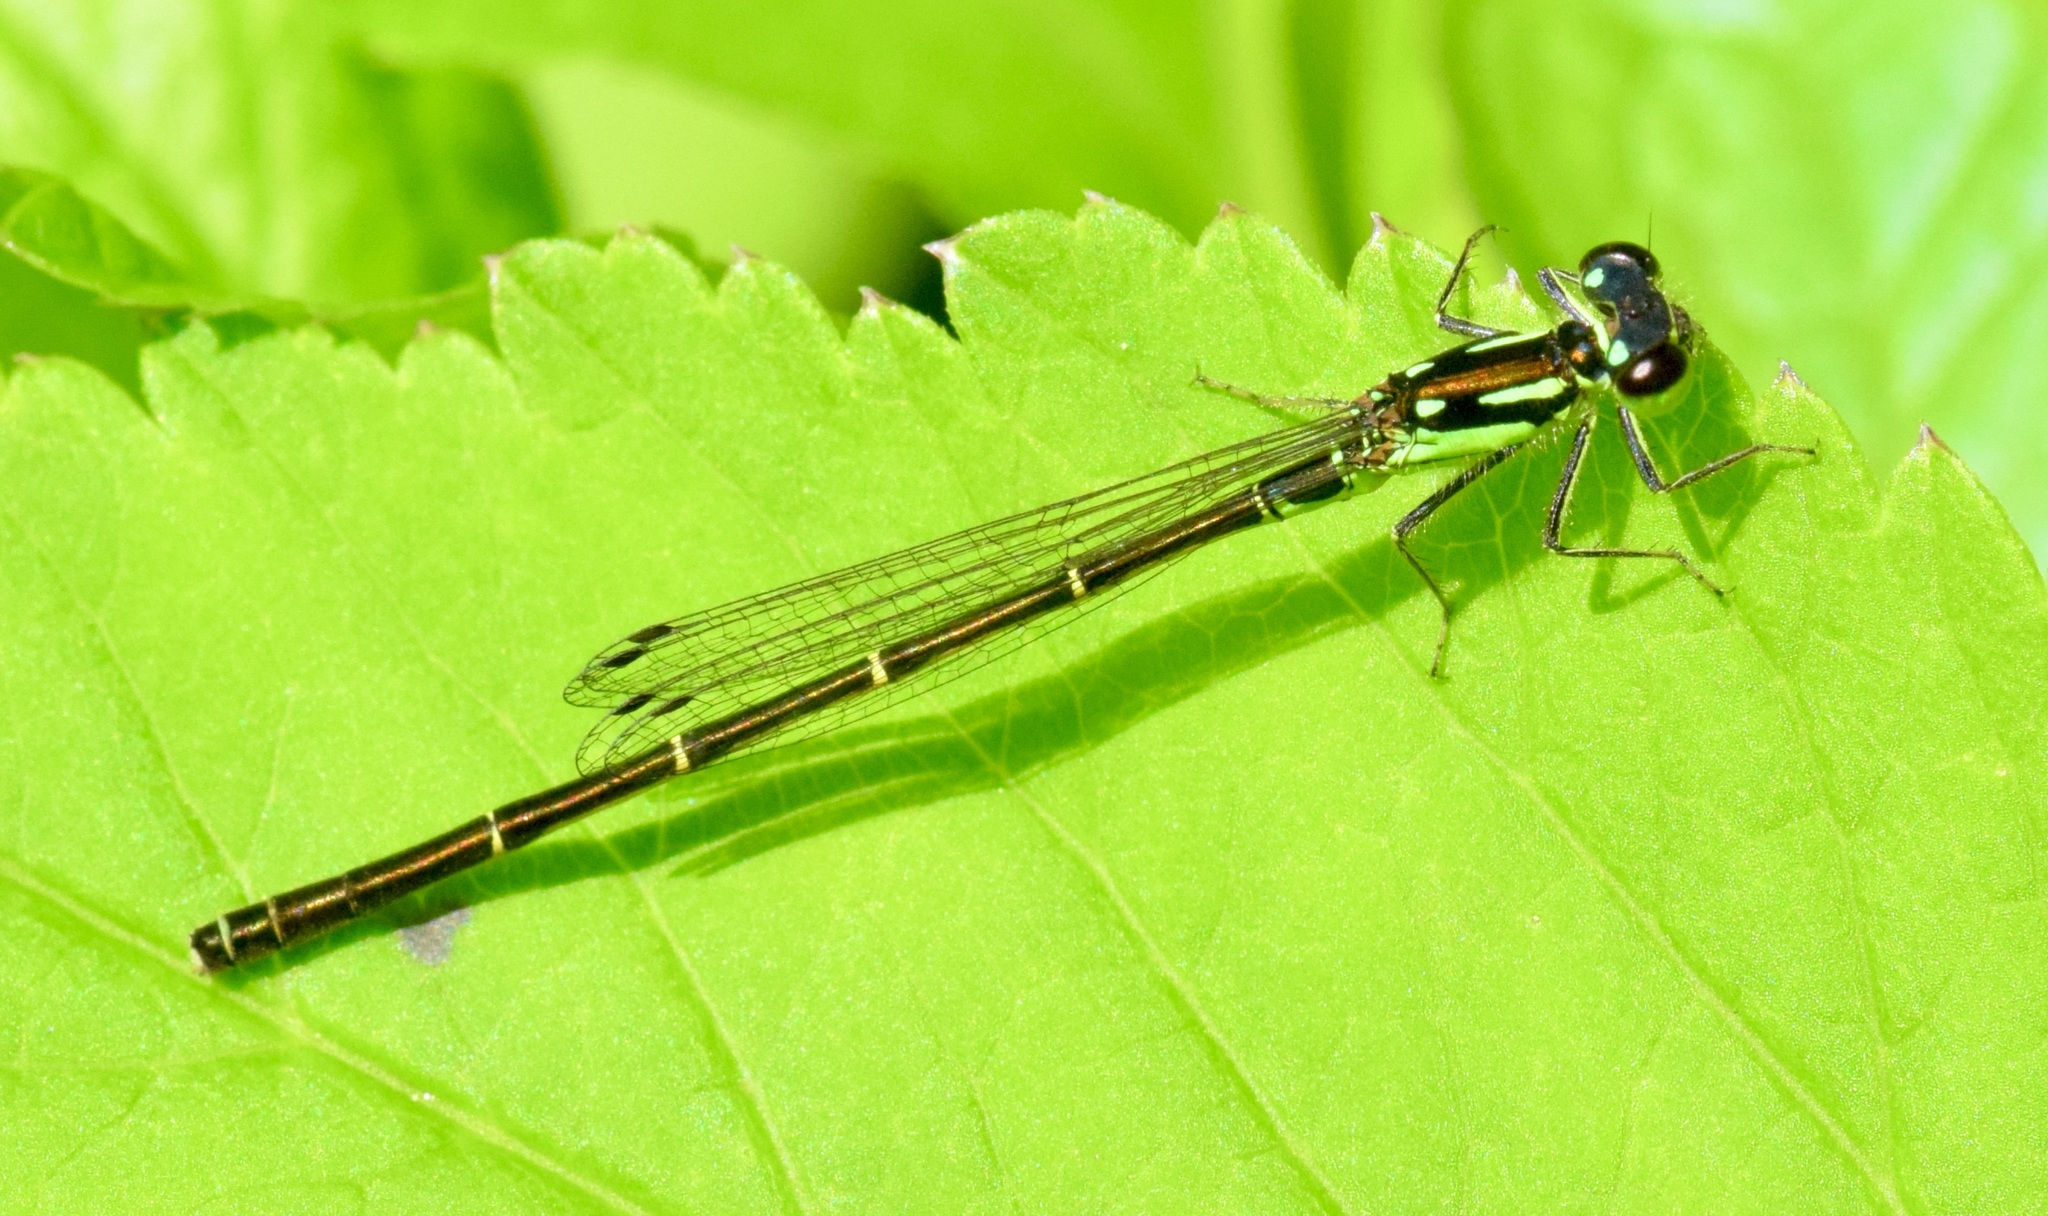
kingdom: Animalia
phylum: Arthropoda
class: Insecta
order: Odonata
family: Coenagrionidae
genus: Ischnura
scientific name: Ischnura posita
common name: Fragile forktail
